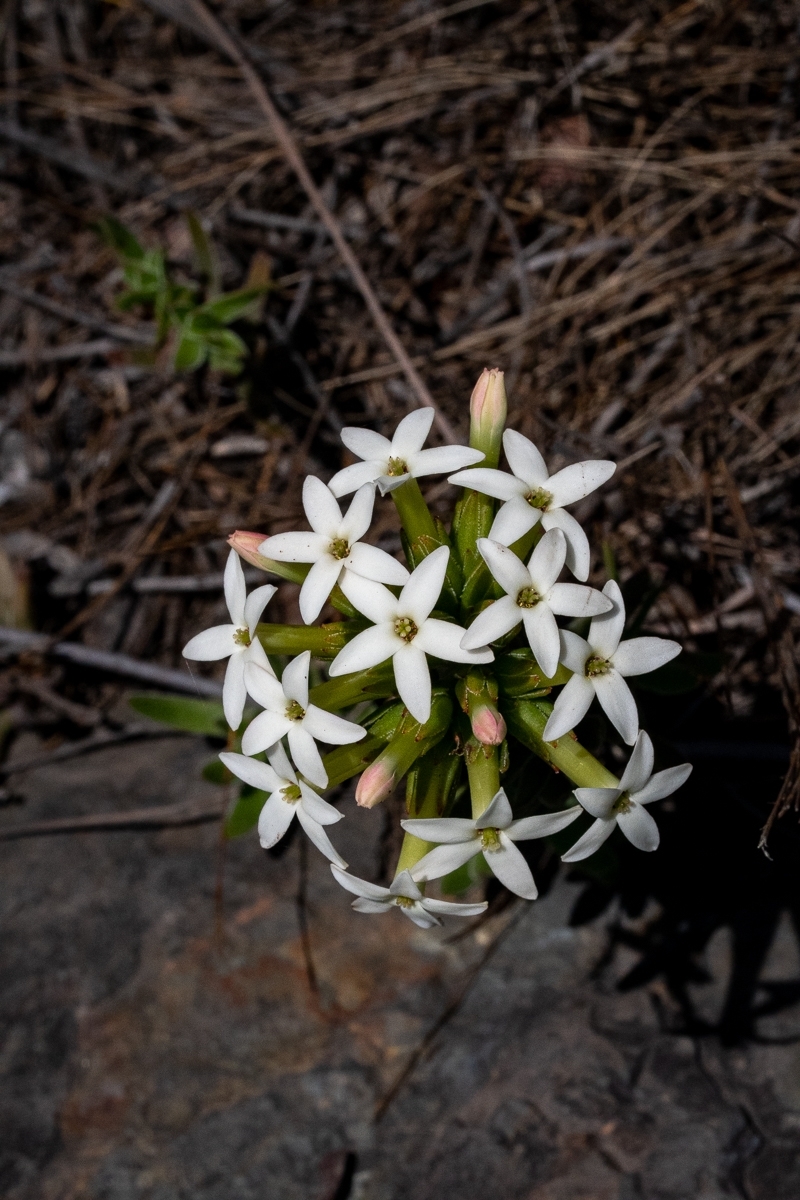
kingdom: Plantae
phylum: Tracheophyta
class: Magnoliopsida
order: Saxifragales
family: Crassulaceae
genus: Crassula
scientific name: Crassula fascicularis
